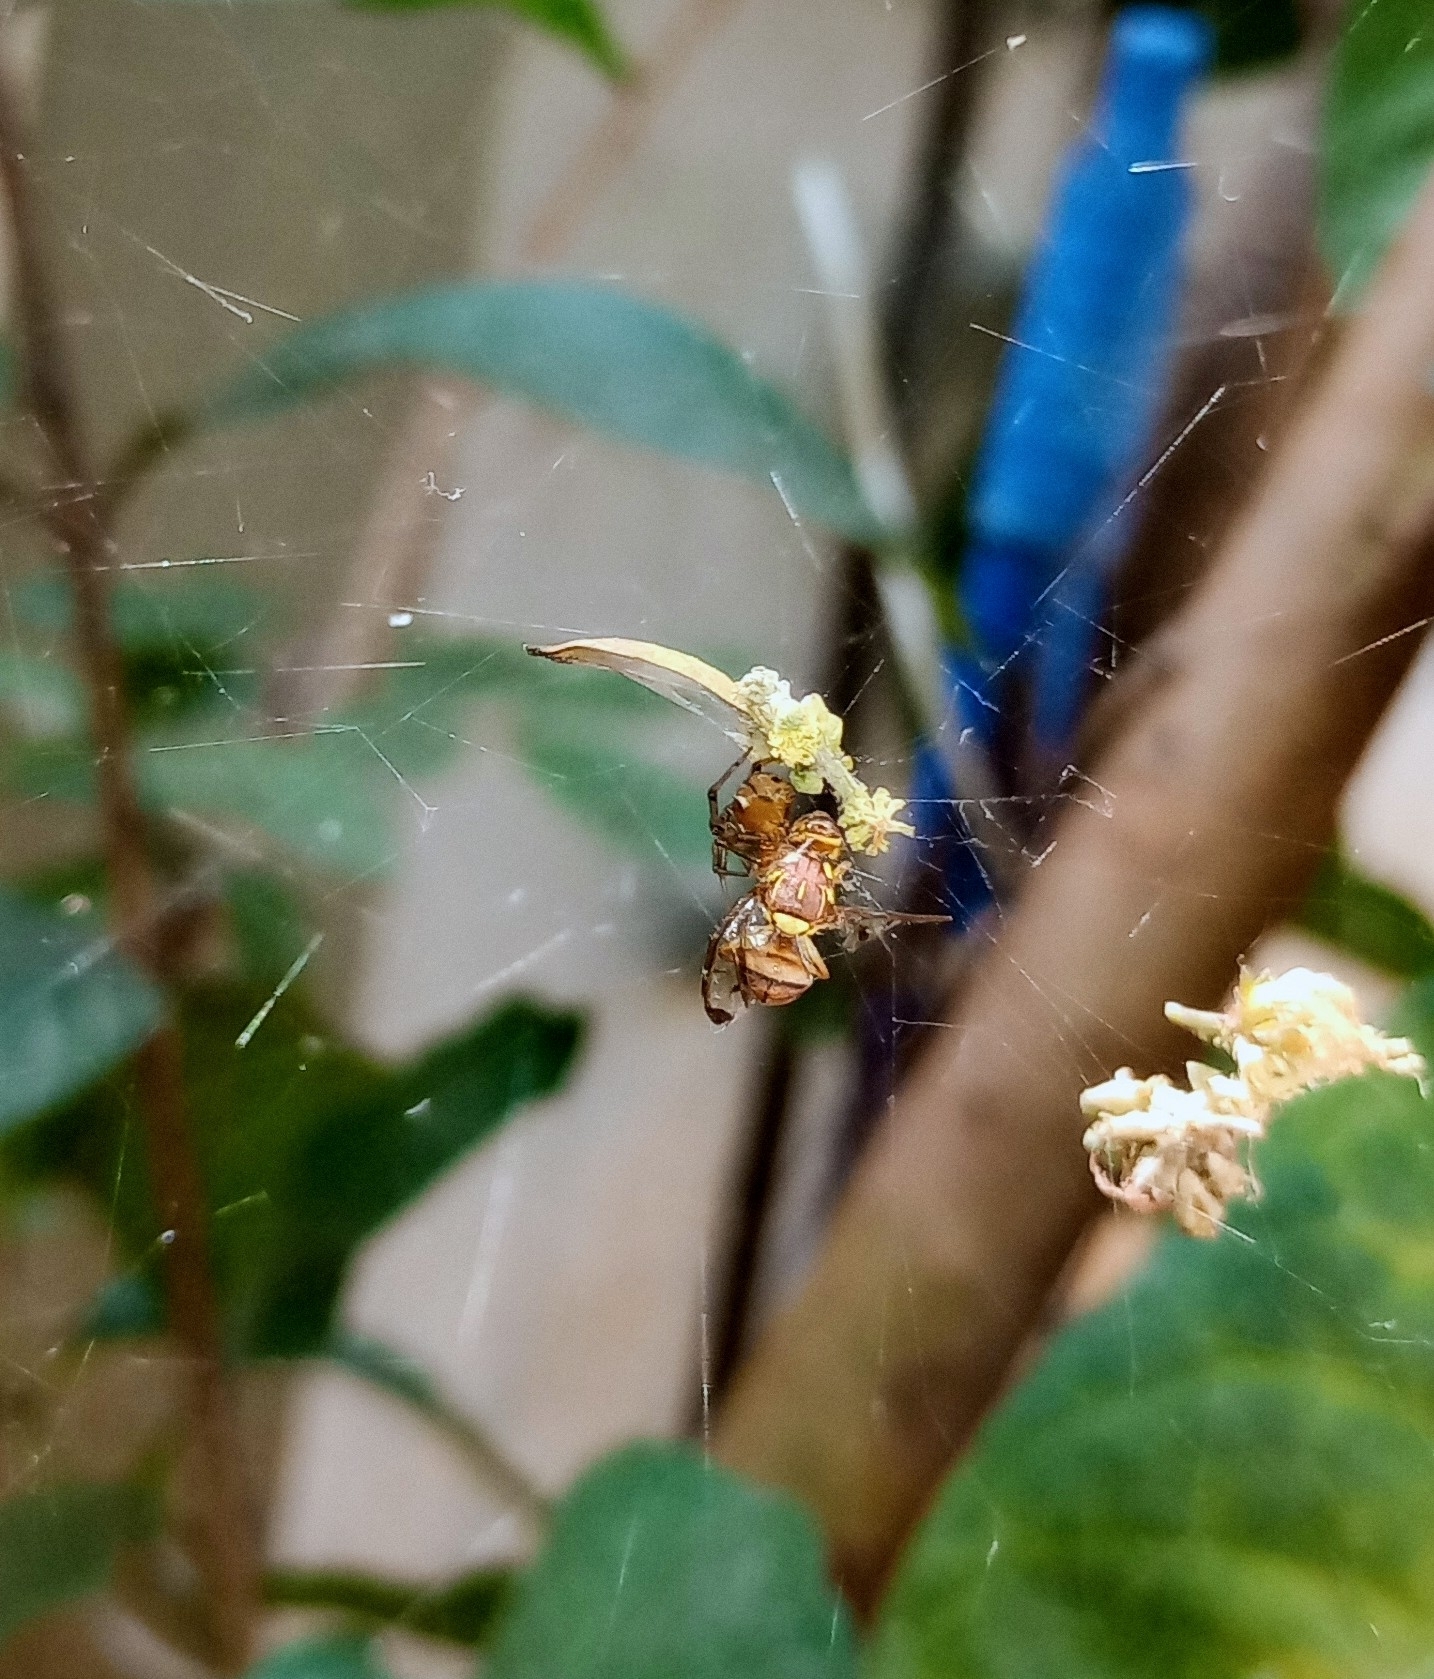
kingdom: Animalia
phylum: Arthropoda
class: Arachnida
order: Araneae
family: Theridiidae
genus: Nihonhimea
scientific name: Nihonhimea mundula
